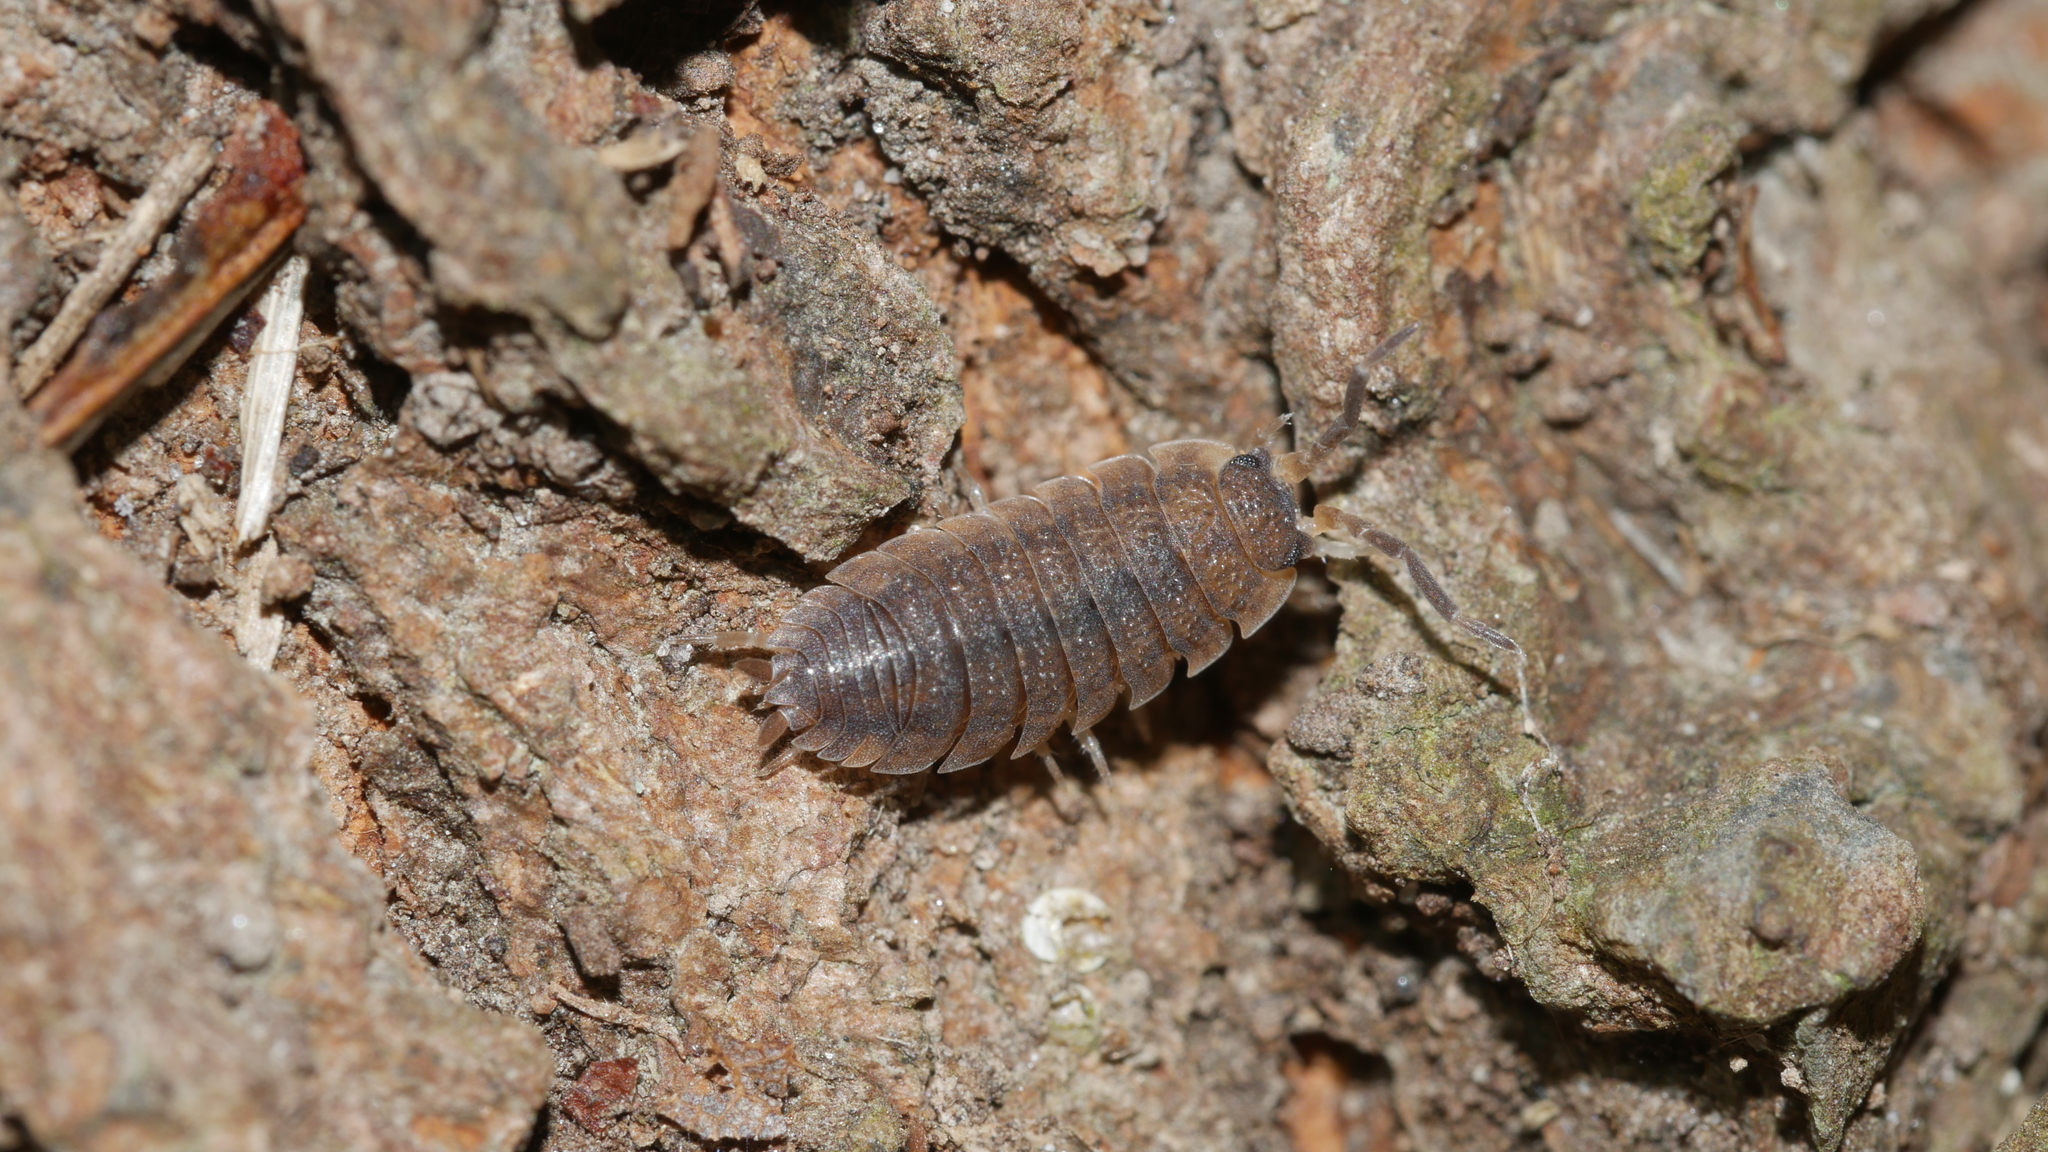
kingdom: Animalia
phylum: Arthropoda
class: Malacostraca
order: Isopoda
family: Porcellionidae
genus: Porcellio
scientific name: Porcellio scaber
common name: Common rough woodlouse
